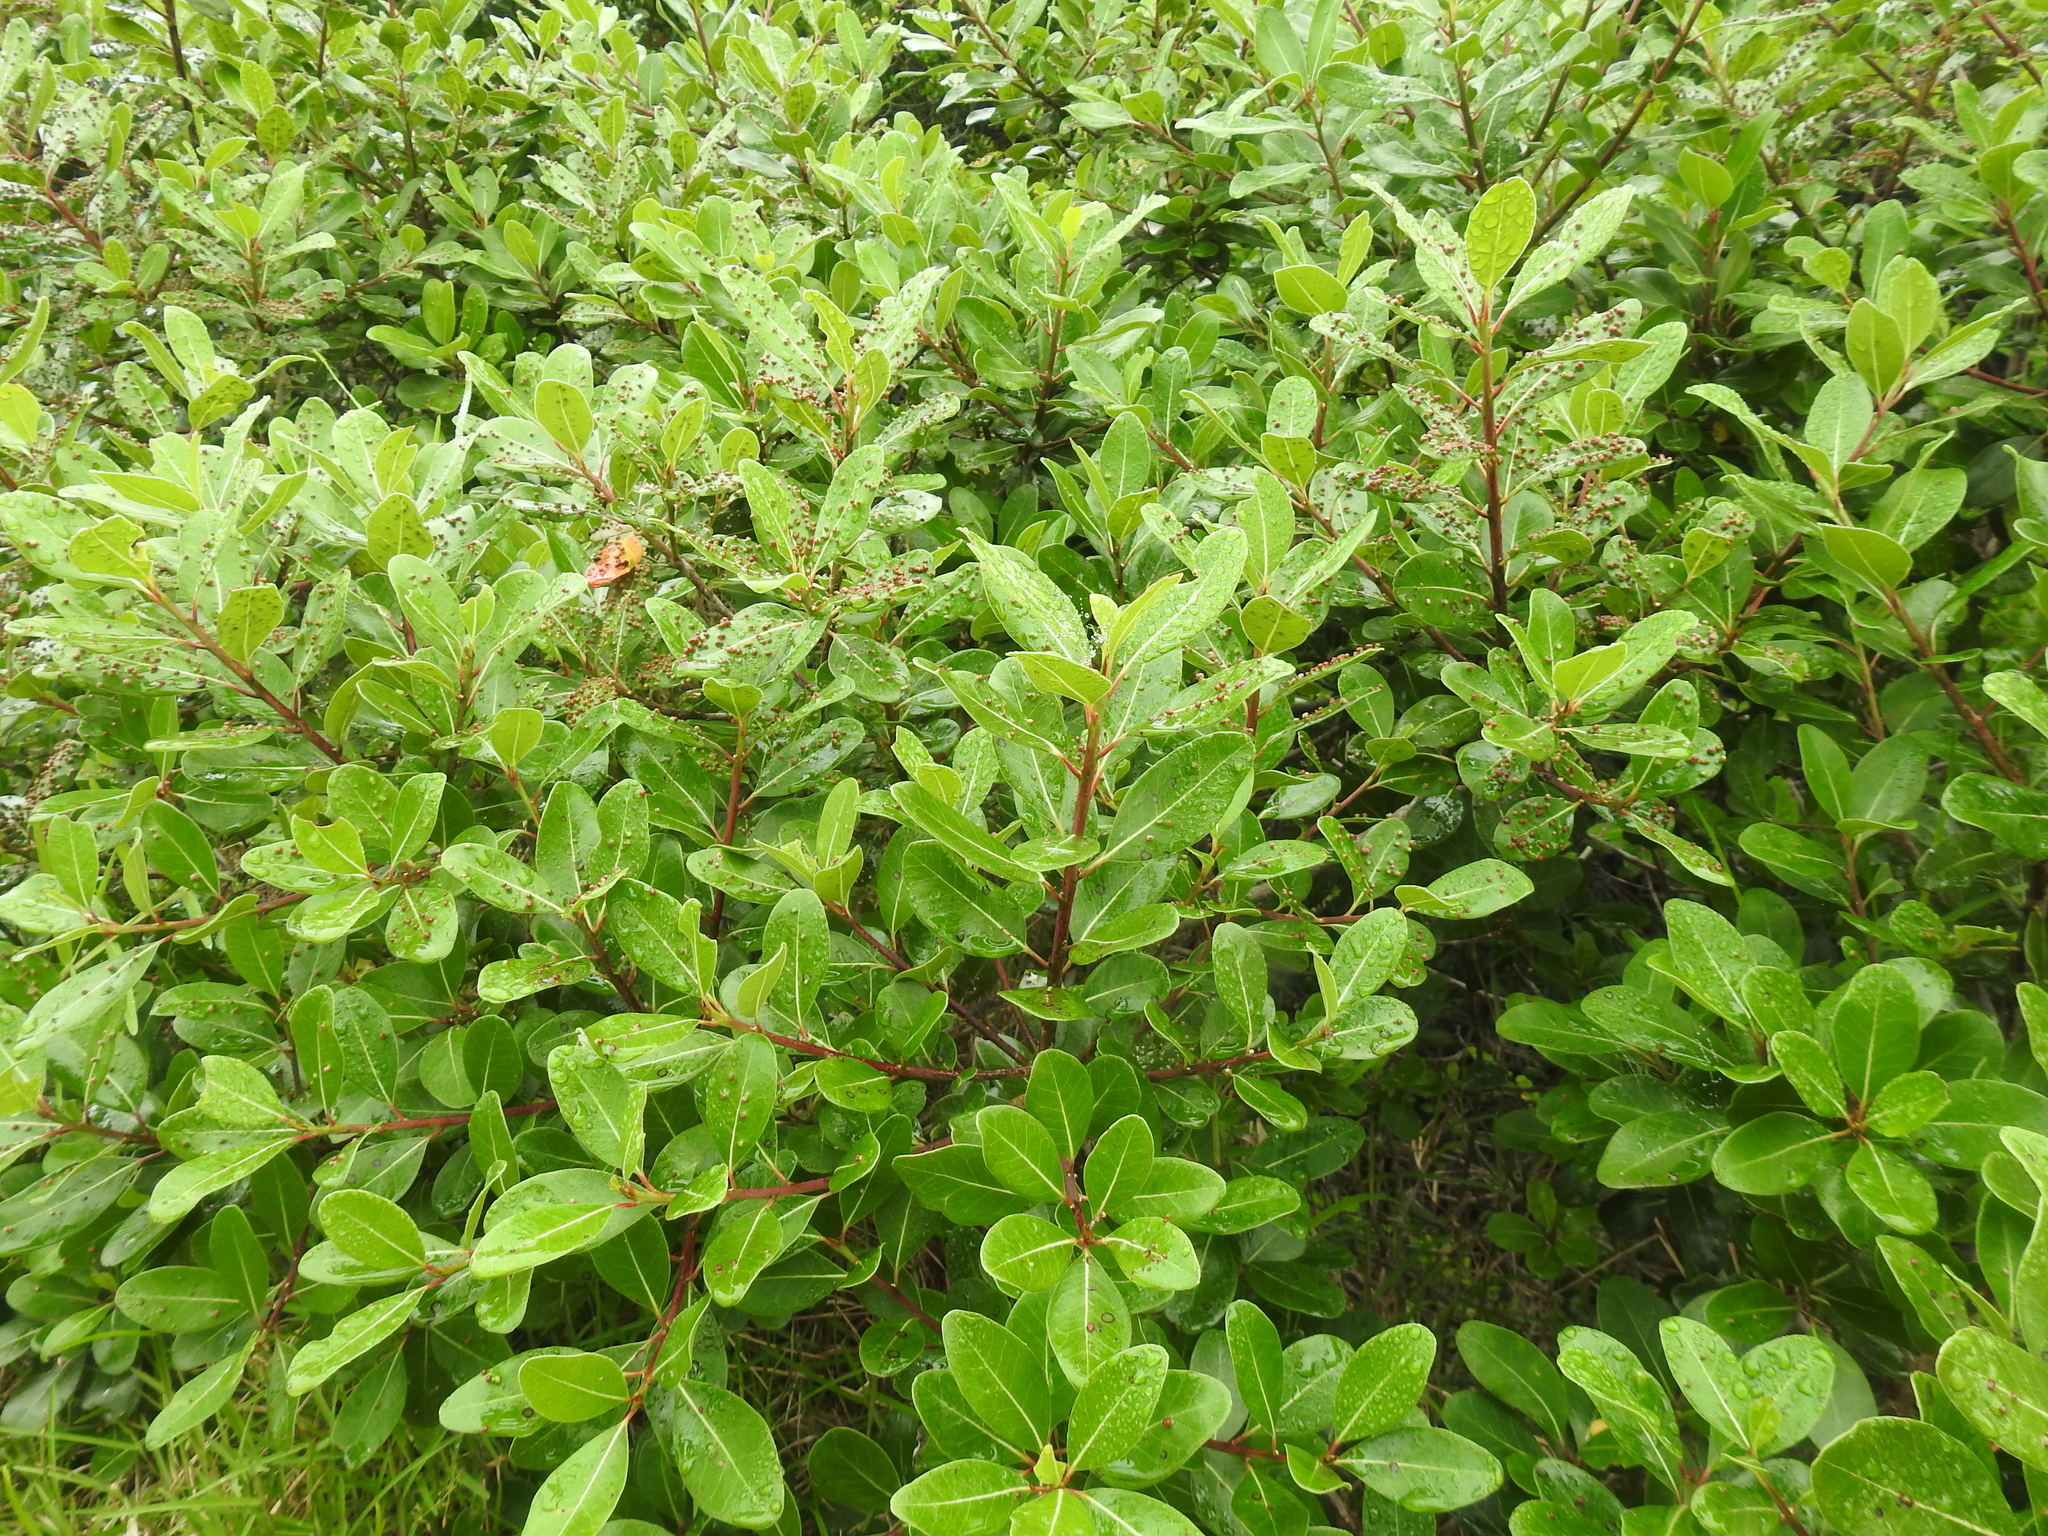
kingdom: Plantae
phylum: Tracheophyta
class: Magnoliopsida
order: Ericales
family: Sapotaceae
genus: Sideroxylon
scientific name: Sideroxylon inerme
